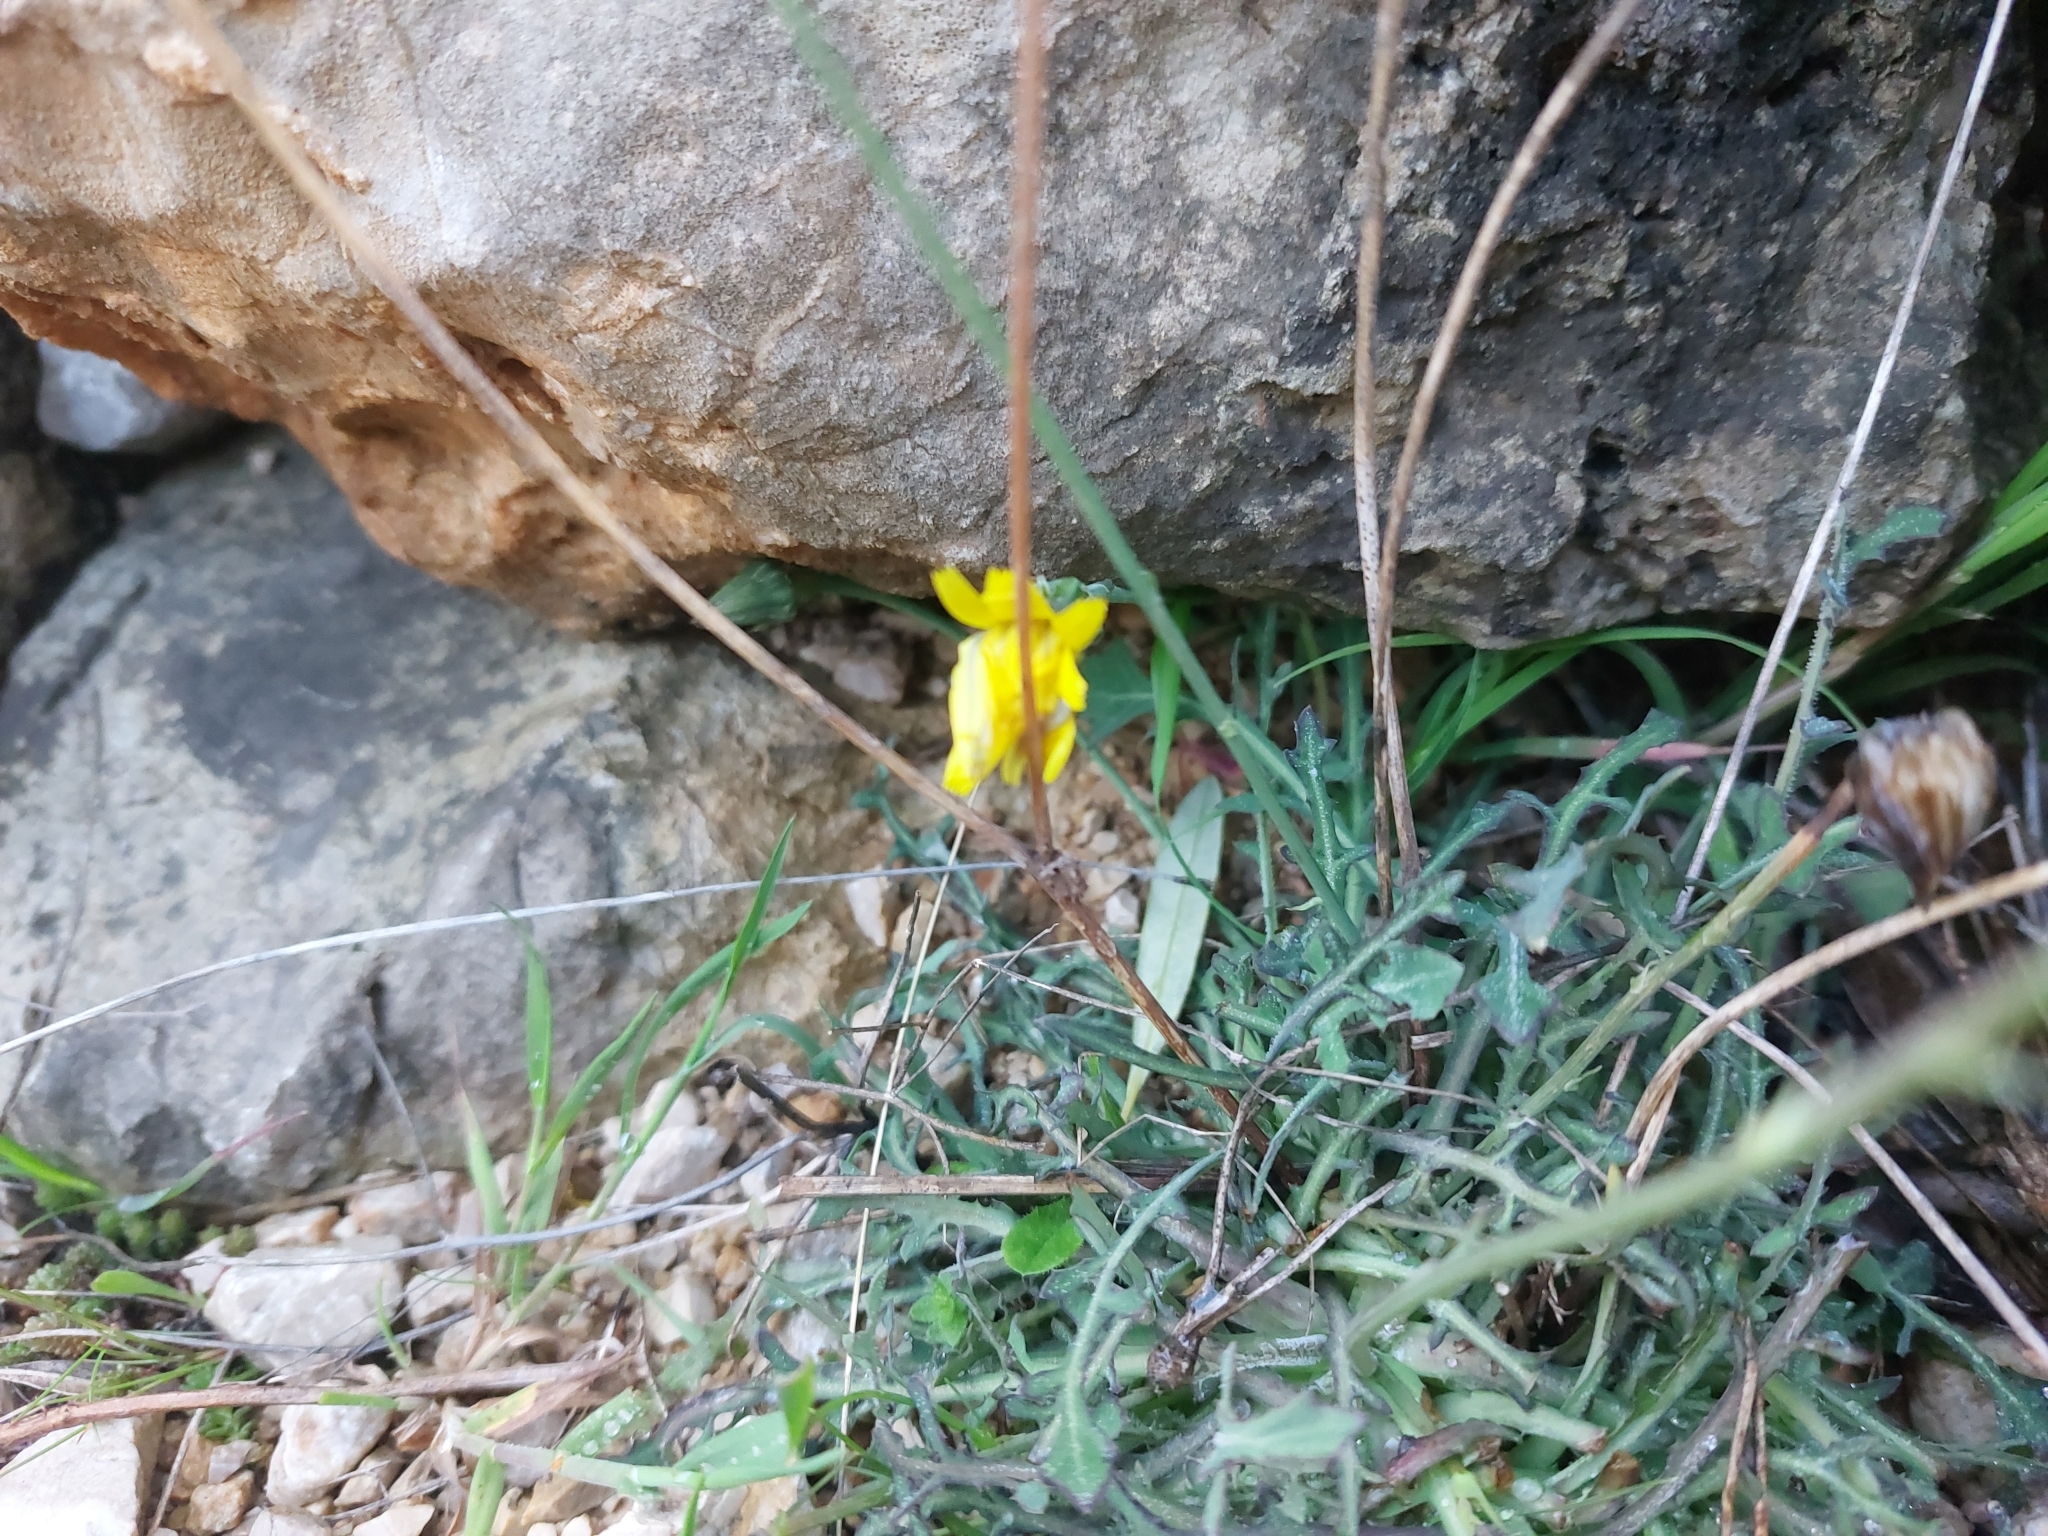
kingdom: Plantae
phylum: Tracheophyta
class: Magnoliopsida
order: Asterales
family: Asteraceae
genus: Reichardia
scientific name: Reichardia picroides
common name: Common brighteyes
